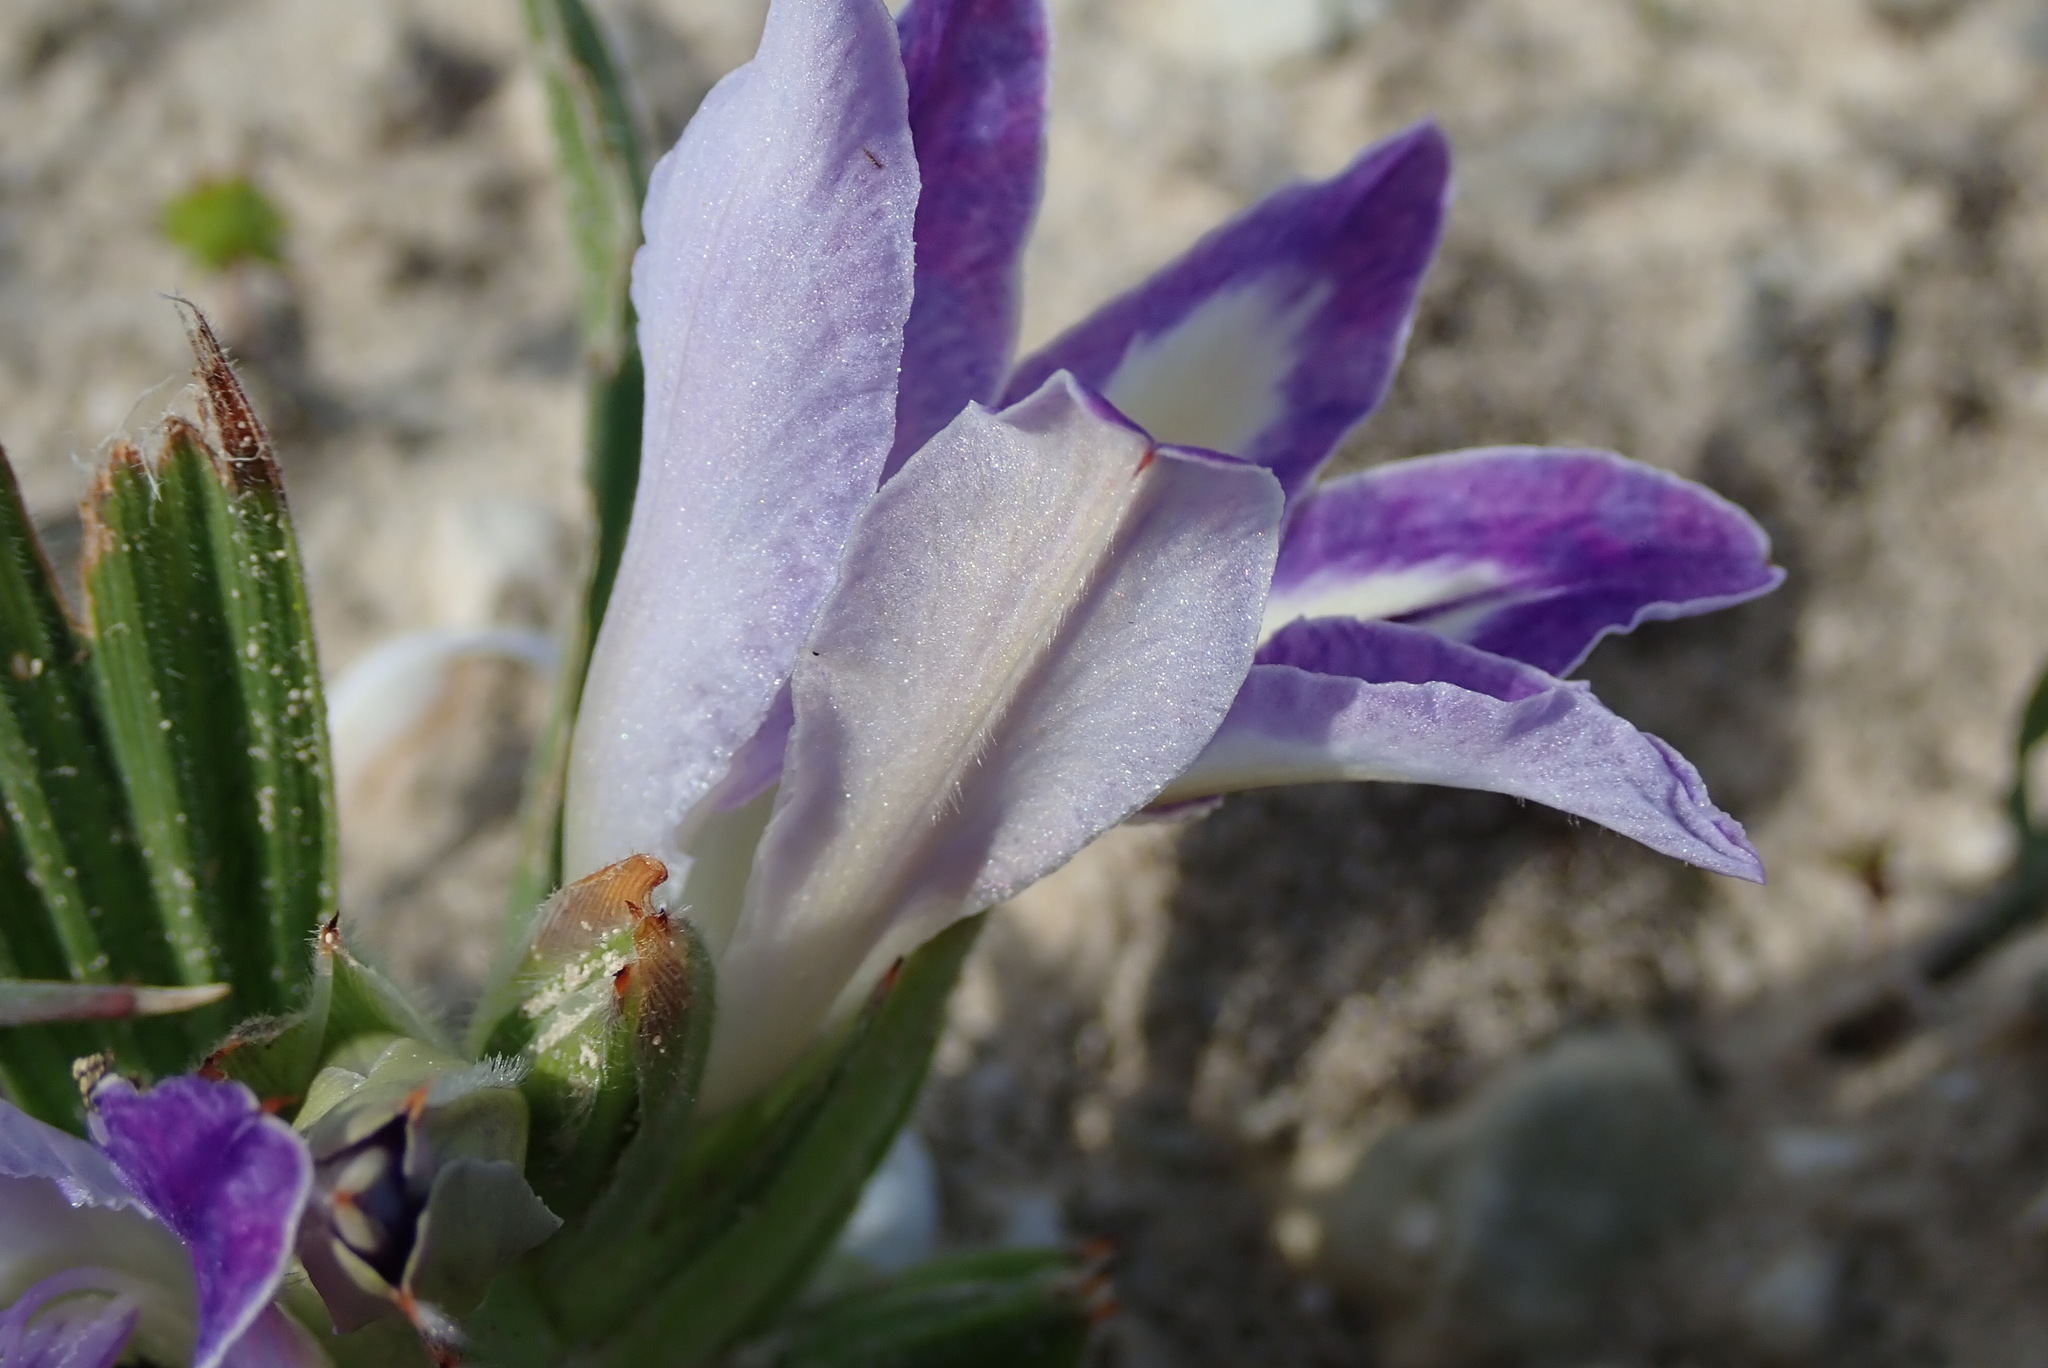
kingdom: Plantae
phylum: Tracheophyta
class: Liliopsida
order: Asparagales
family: Iridaceae
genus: Babiana
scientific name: Babiana ambigua
